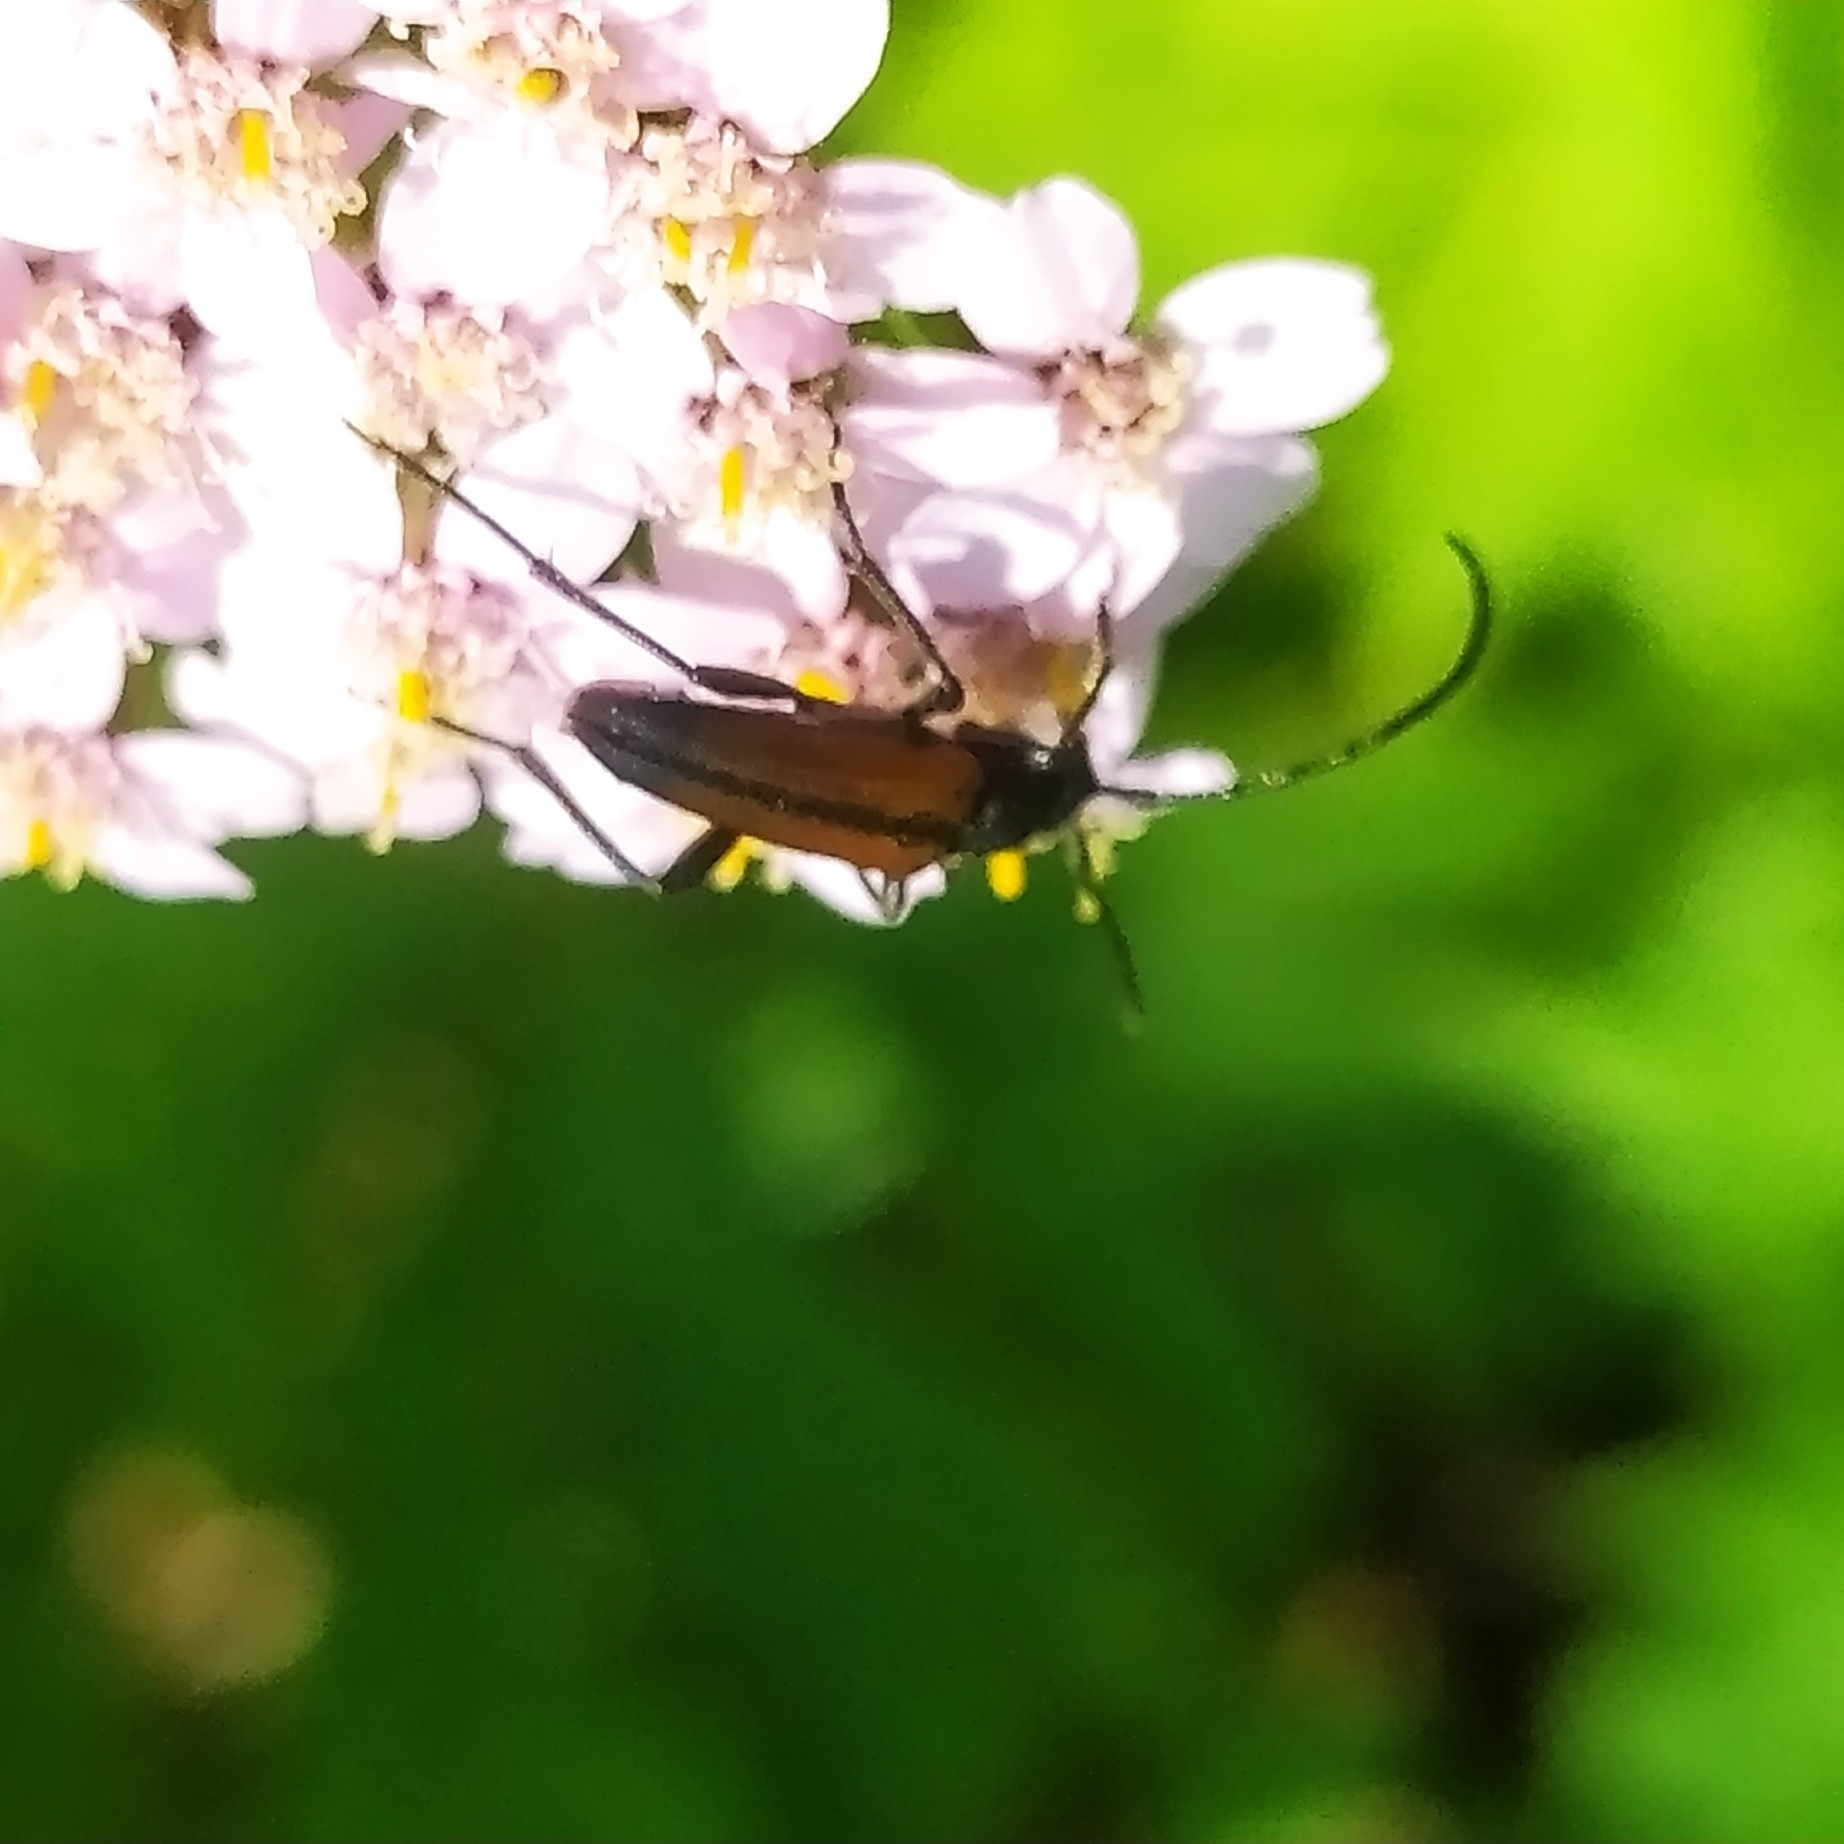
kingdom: Animalia
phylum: Arthropoda
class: Insecta
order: Coleoptera
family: Cerambycidae
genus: Stenurella
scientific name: Stenurella melanura
